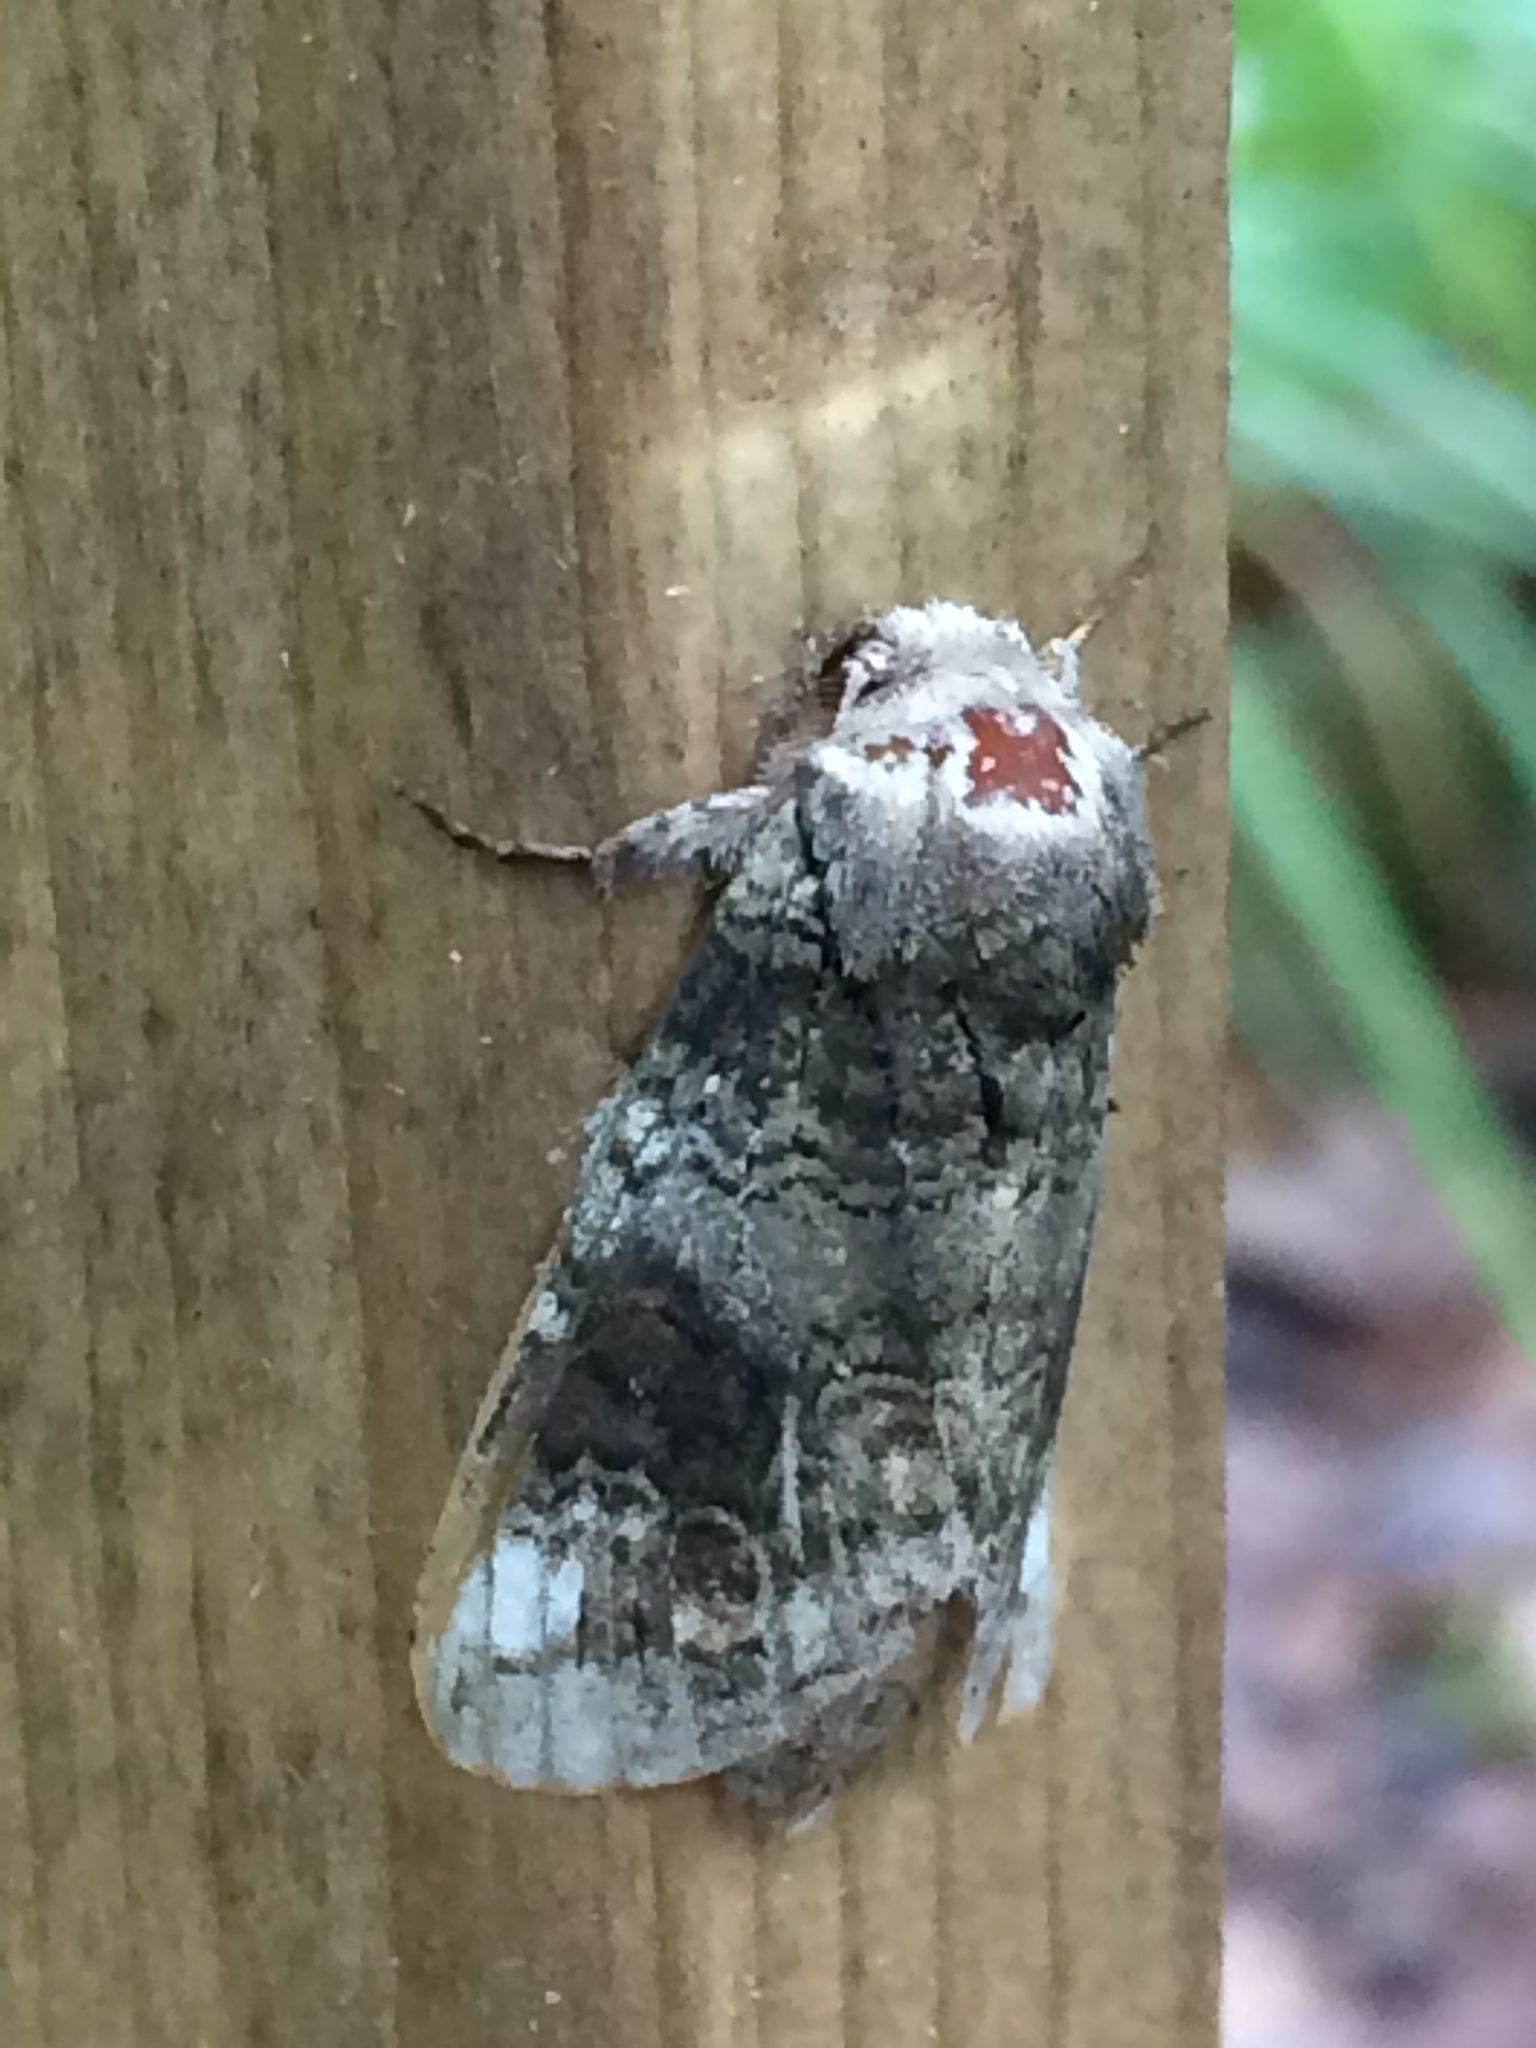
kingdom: Animalia
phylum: Arthropoda
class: Insecta
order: Lepidoptera
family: Notodontidae
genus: Heterocampa
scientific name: Heterocampa obliqua
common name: Oblique heterocampa
